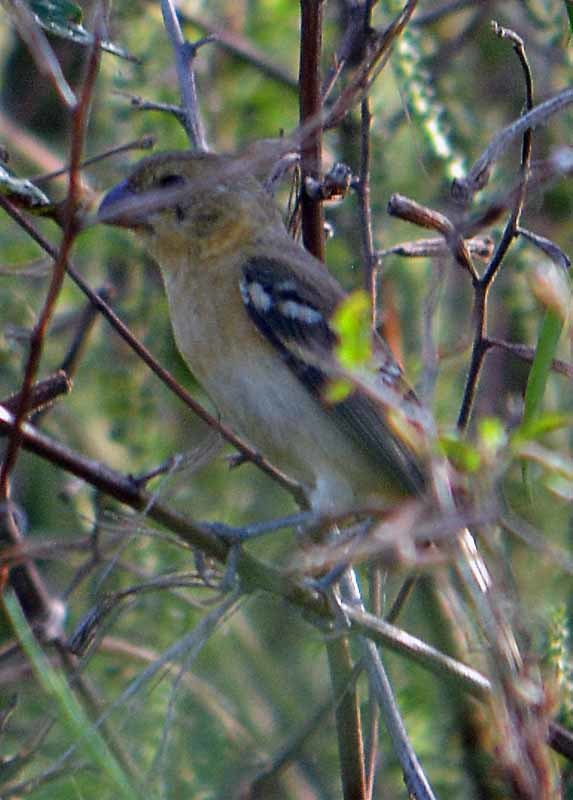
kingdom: Animalia
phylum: Chordata
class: Aves
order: Passeriformes
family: Thraupidae
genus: Sporophila
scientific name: Sporophila morelleti
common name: Morelet's seedeater
